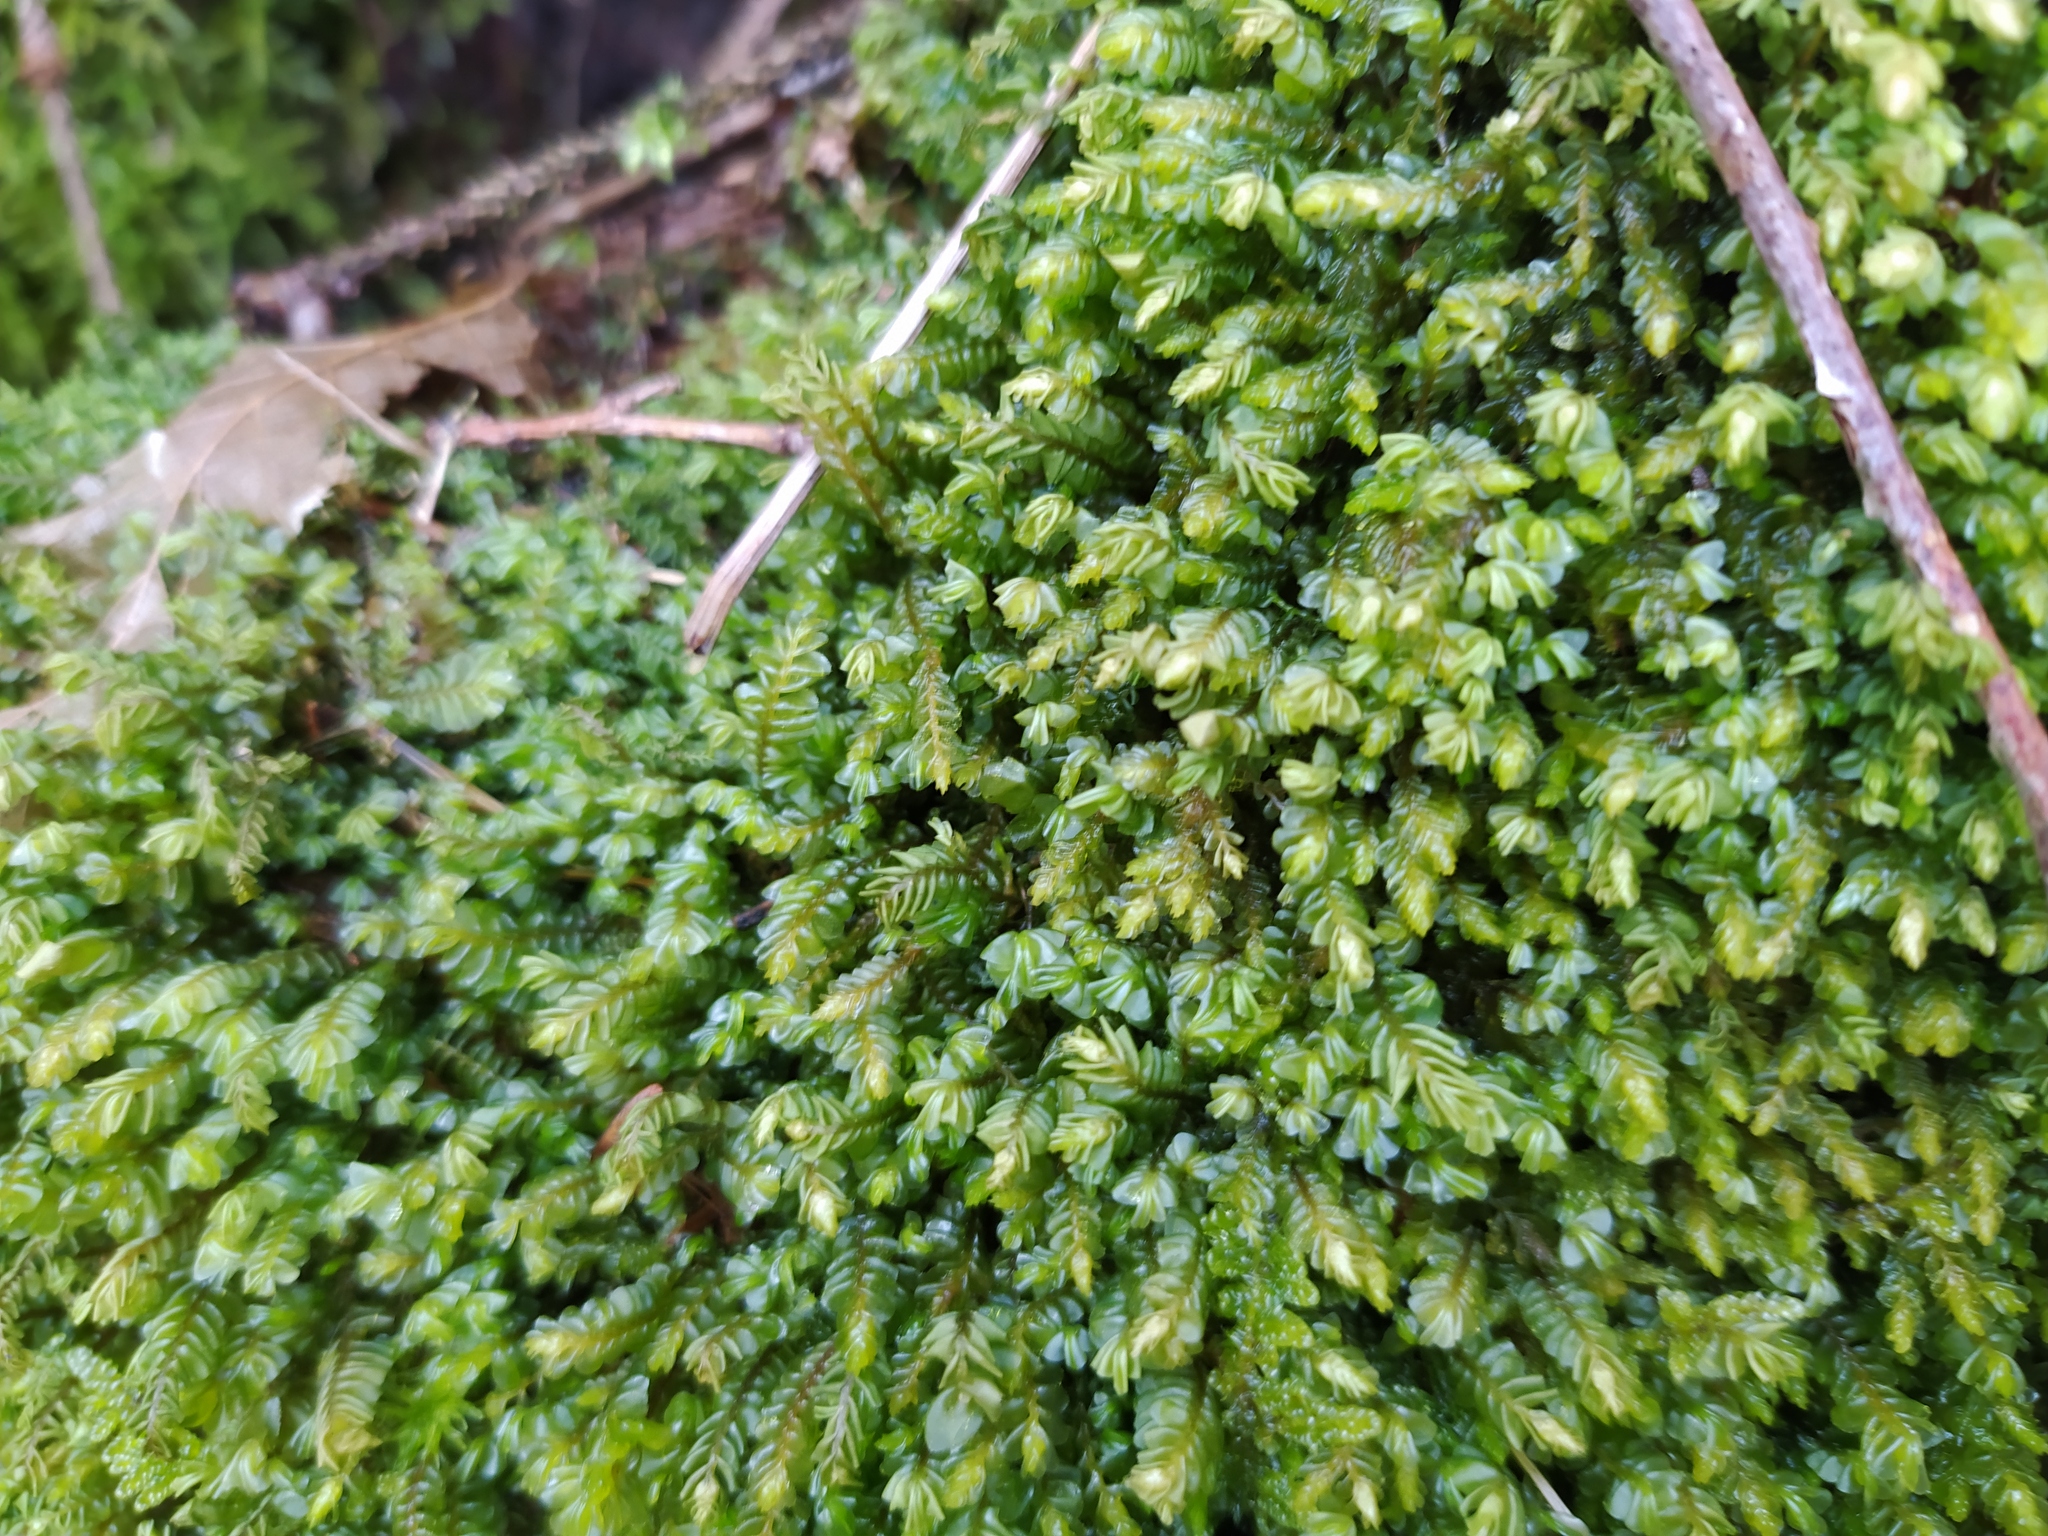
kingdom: Plantae
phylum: Marchantiophyta
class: Jungermanniopsida
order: Jungermanniales
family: Plagiochilaceae
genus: Plagiochila
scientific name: Plagiochila porelloides
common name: Lesser featherwort
